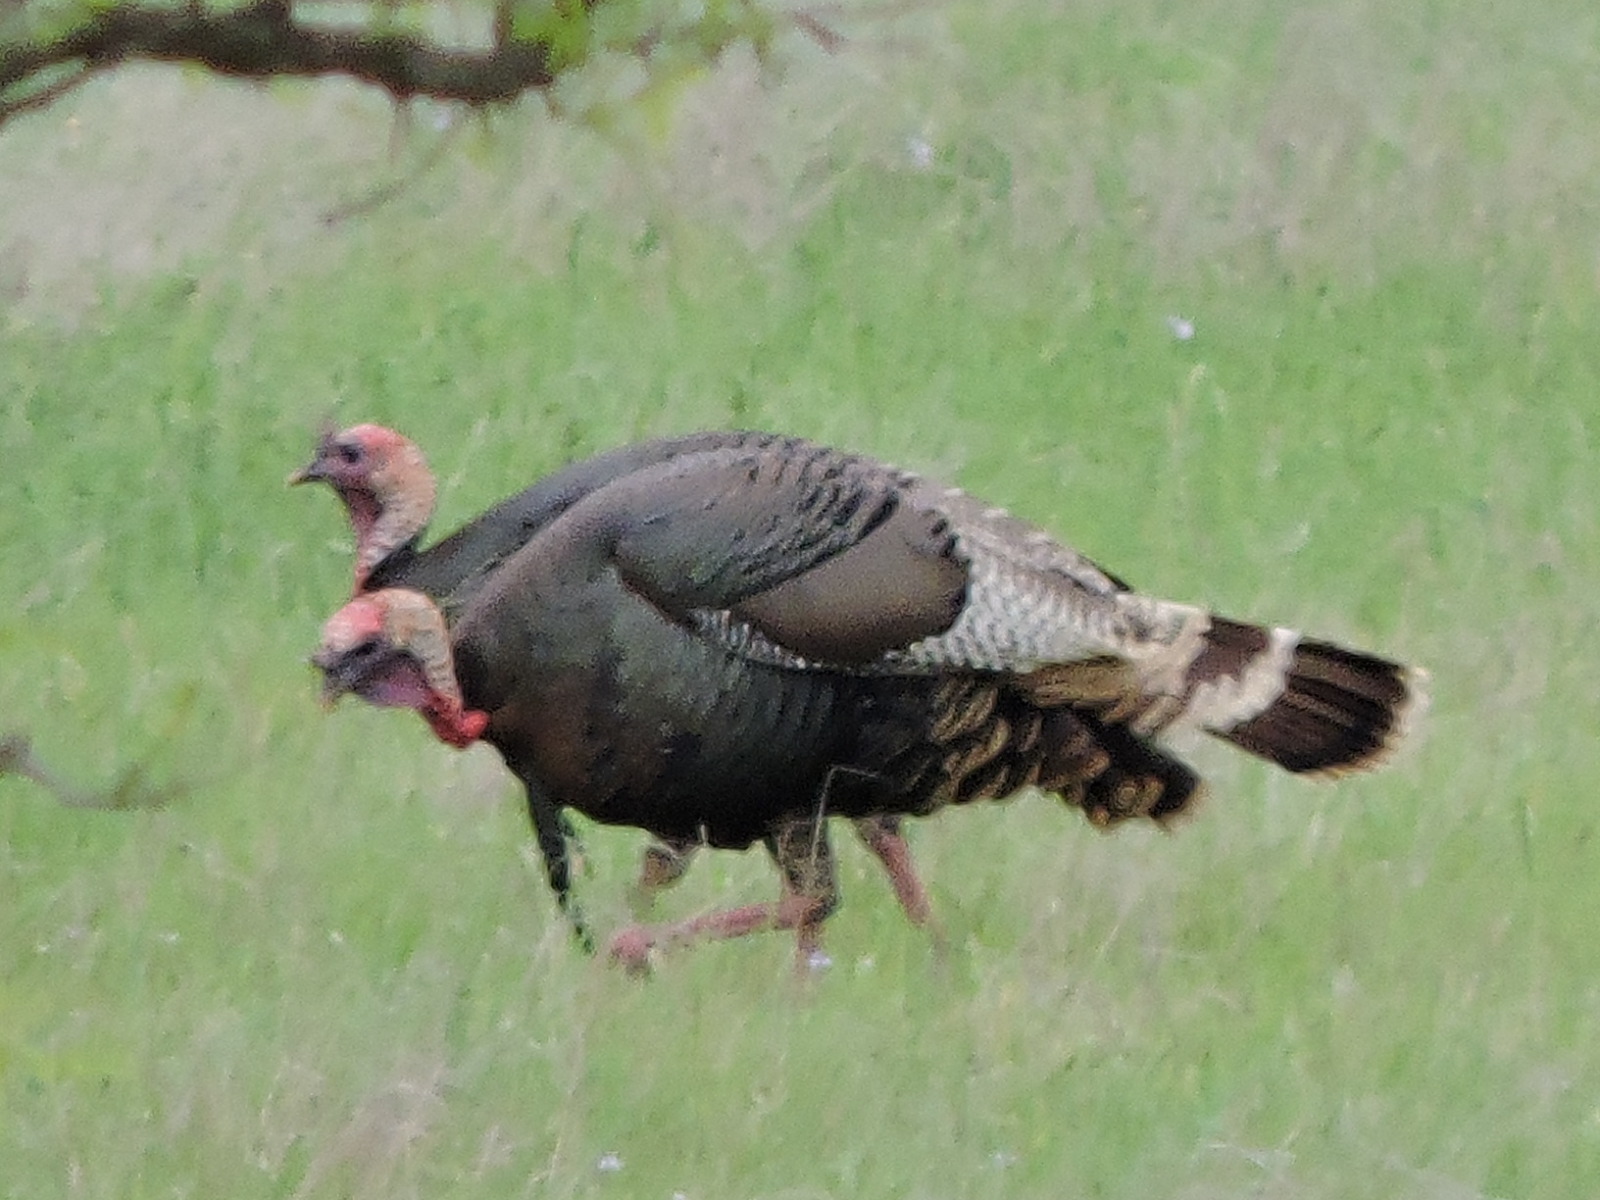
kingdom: Animalia
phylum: Chordata
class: Aves
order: Galliformes
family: Phasianidae
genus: Meleagris
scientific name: Meleagris gallopavo
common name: Wild turkey
